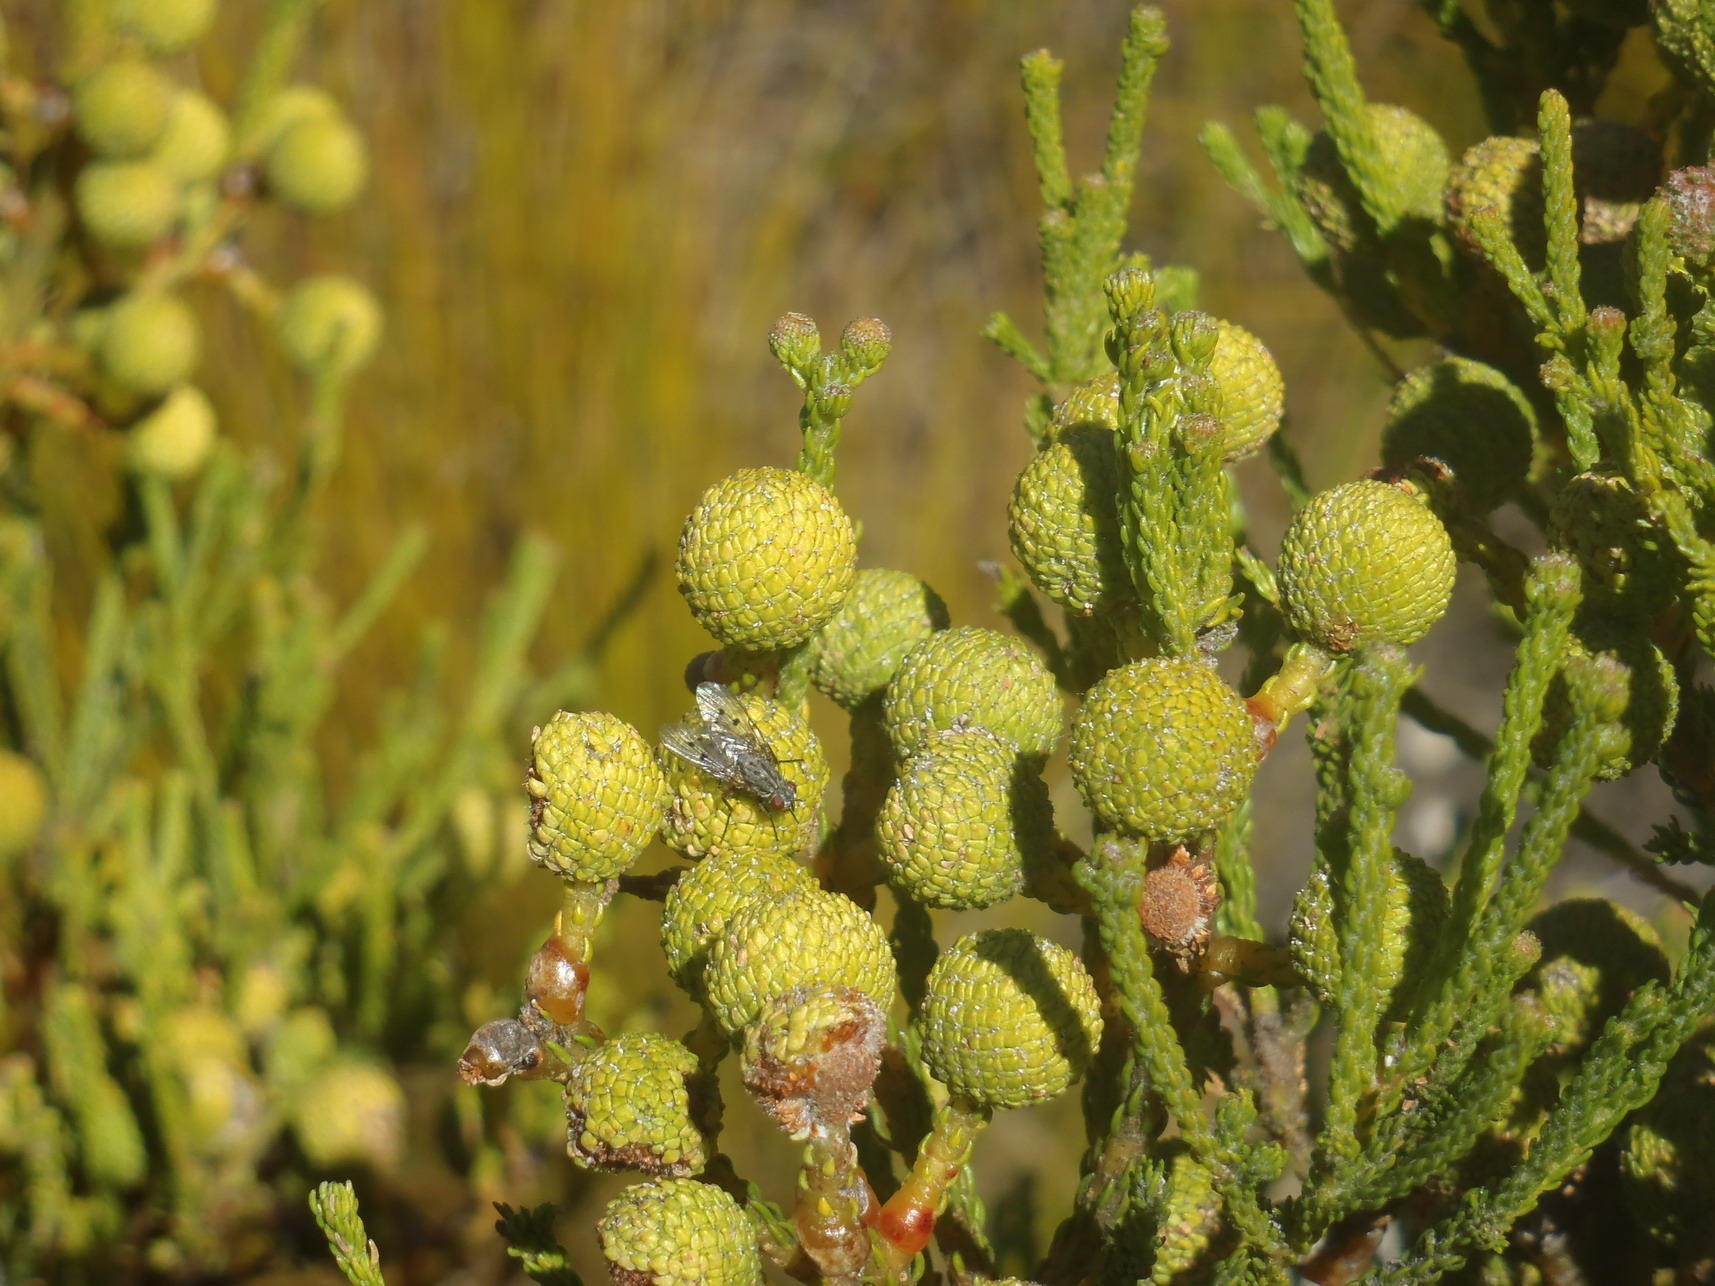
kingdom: Plantae
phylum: Tracheophyta
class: Magnoliopsida
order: Bruniales
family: Bruniaceae
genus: Berzelia
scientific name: Berzelia intermedia
